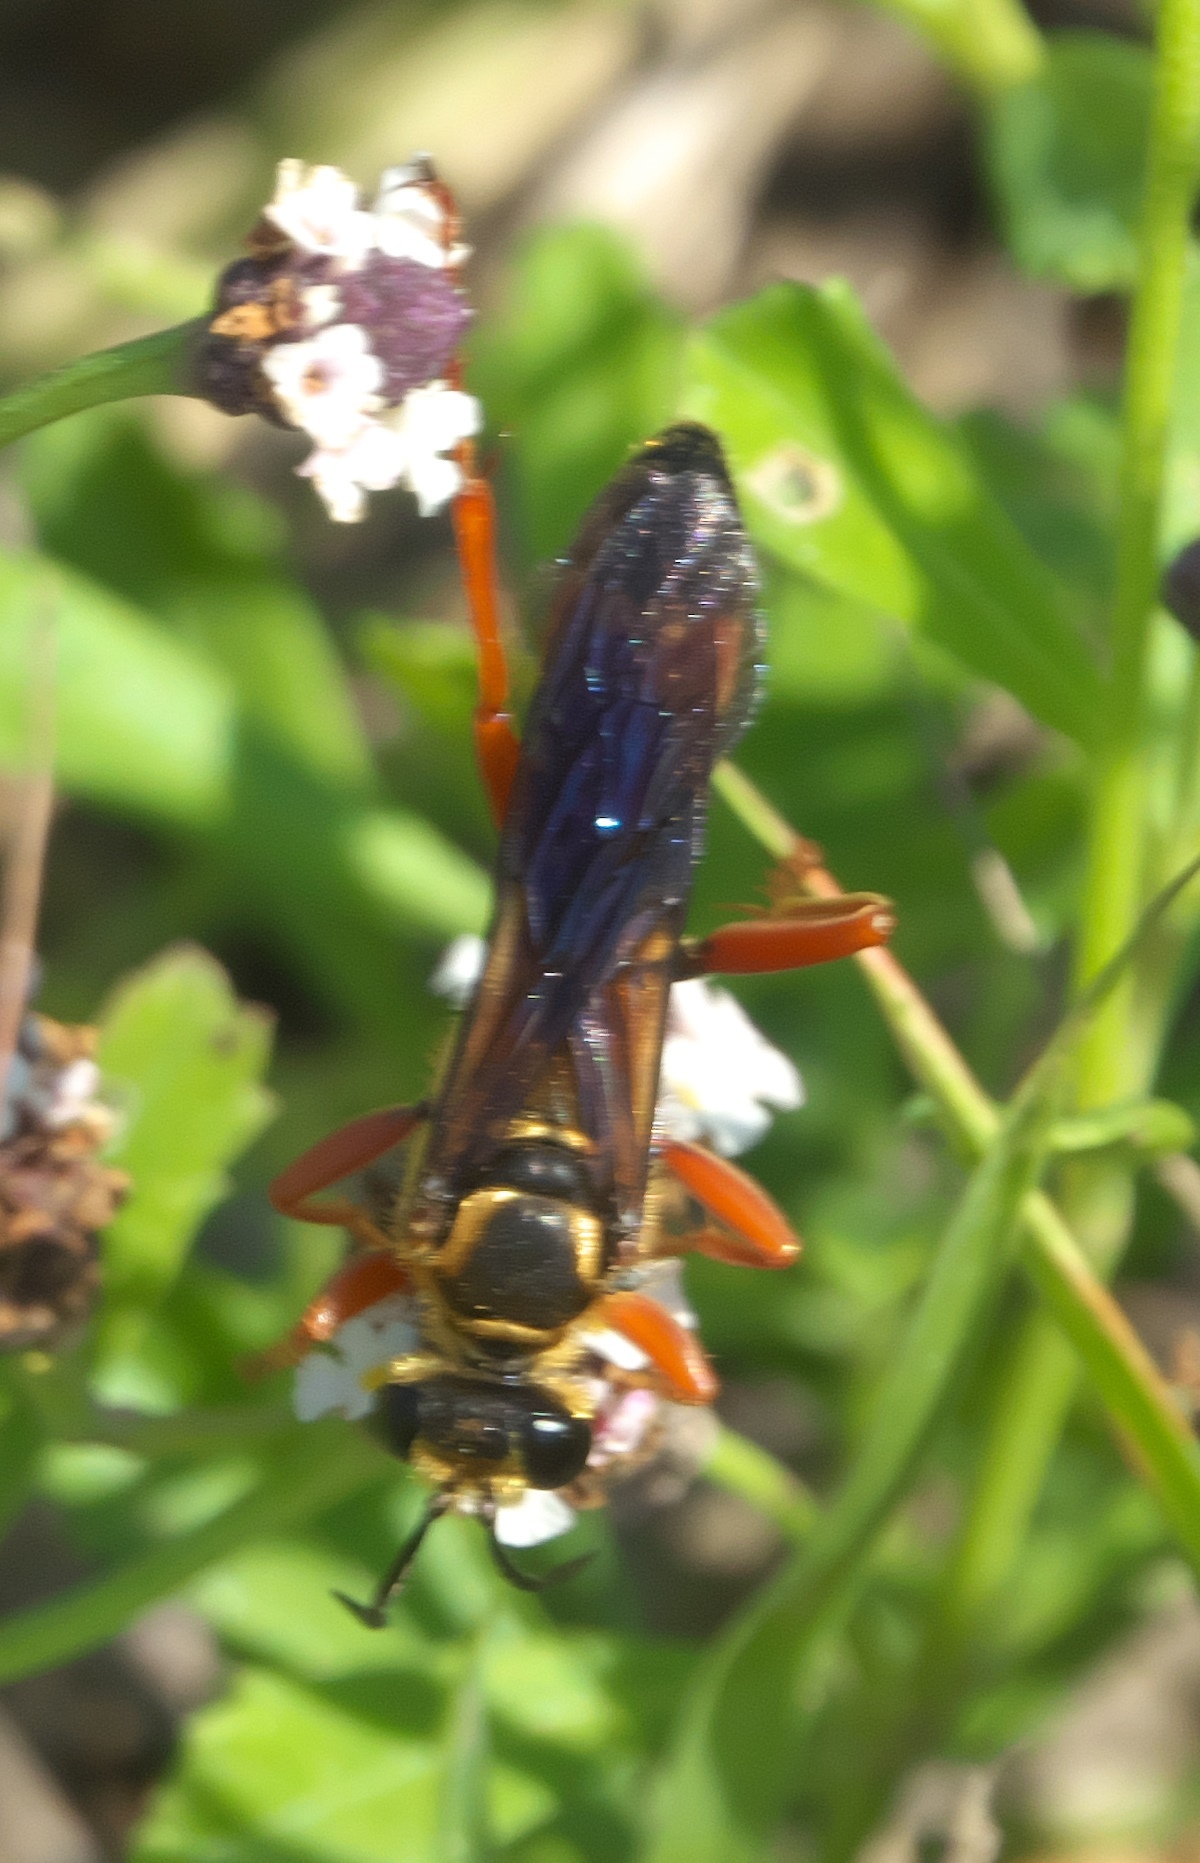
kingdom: Animalia
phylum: Arthropoda
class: Insecta
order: Hymenoptera
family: Sphecidae
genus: Sphex
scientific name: Sphex ichneumoneus
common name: Great golden digger wasp
